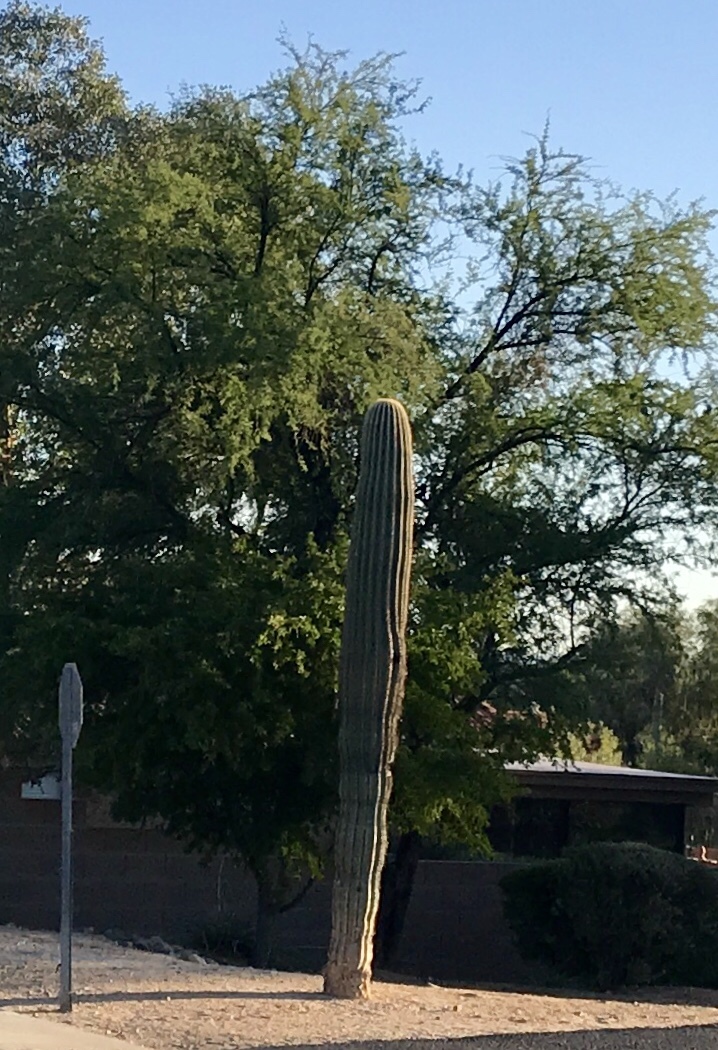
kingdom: Plantae
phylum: Tracheophyta
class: Magnoliopsida
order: Caryophyllales
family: Cactaceae
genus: Carnegiea
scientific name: Carnegiea gigantea
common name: Saguaro
